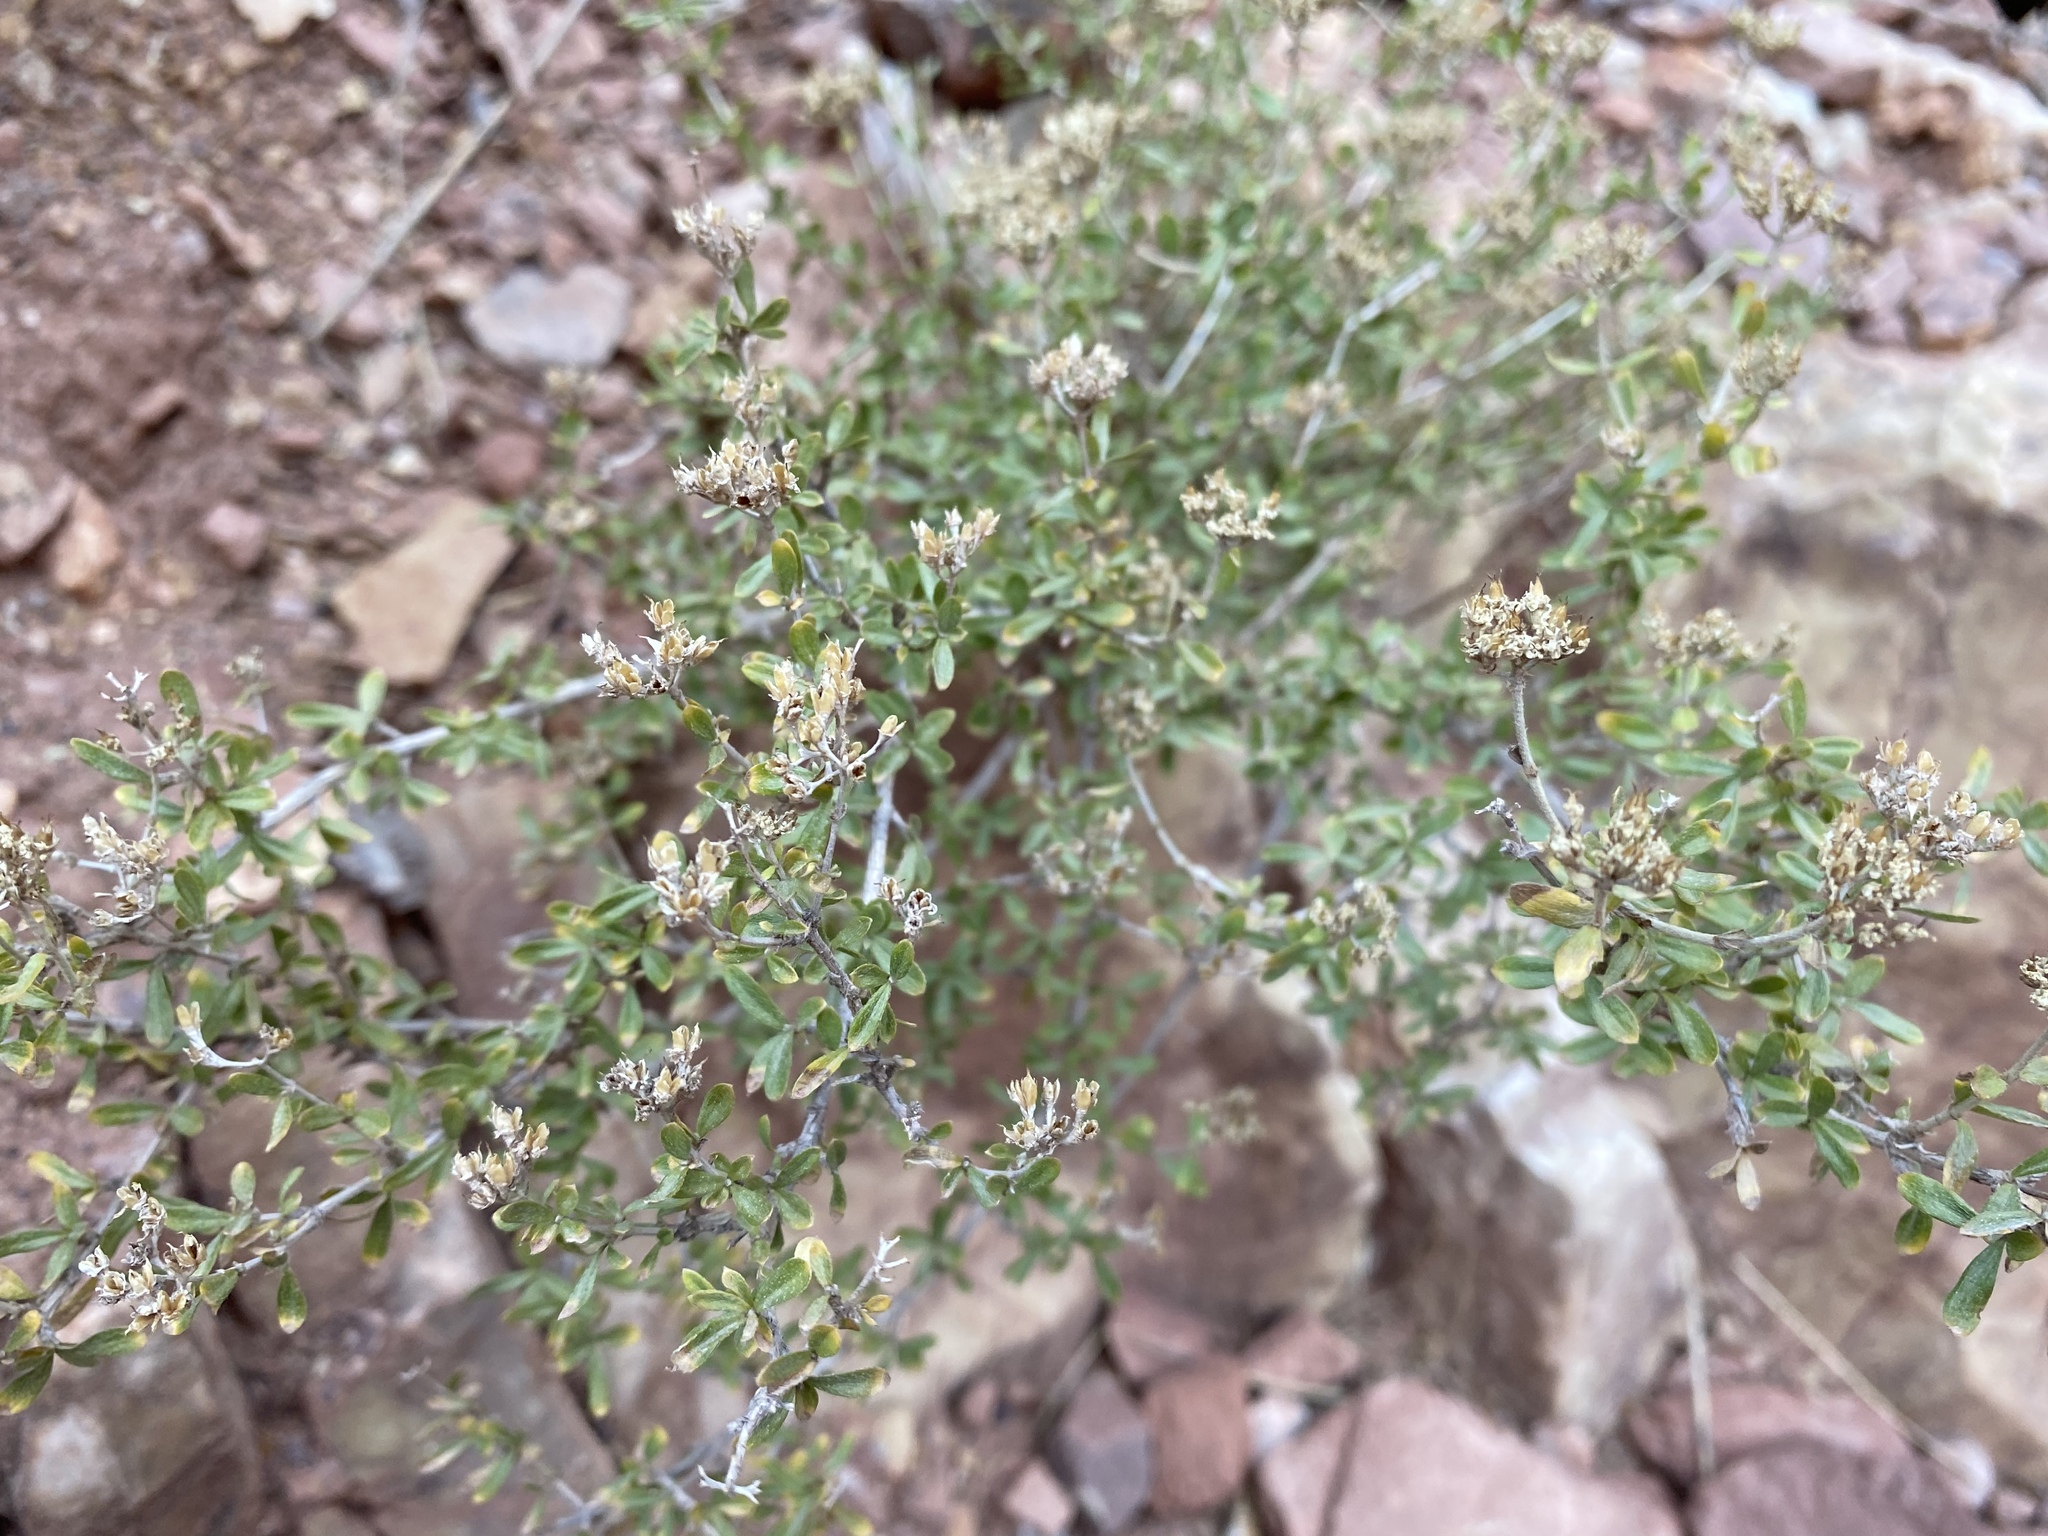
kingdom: Plantae
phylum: Tracheophyta
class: Magnoliopsida
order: Cornales
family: Hydrangeaceae
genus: Fendlerella
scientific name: Fendlerella utahensis
